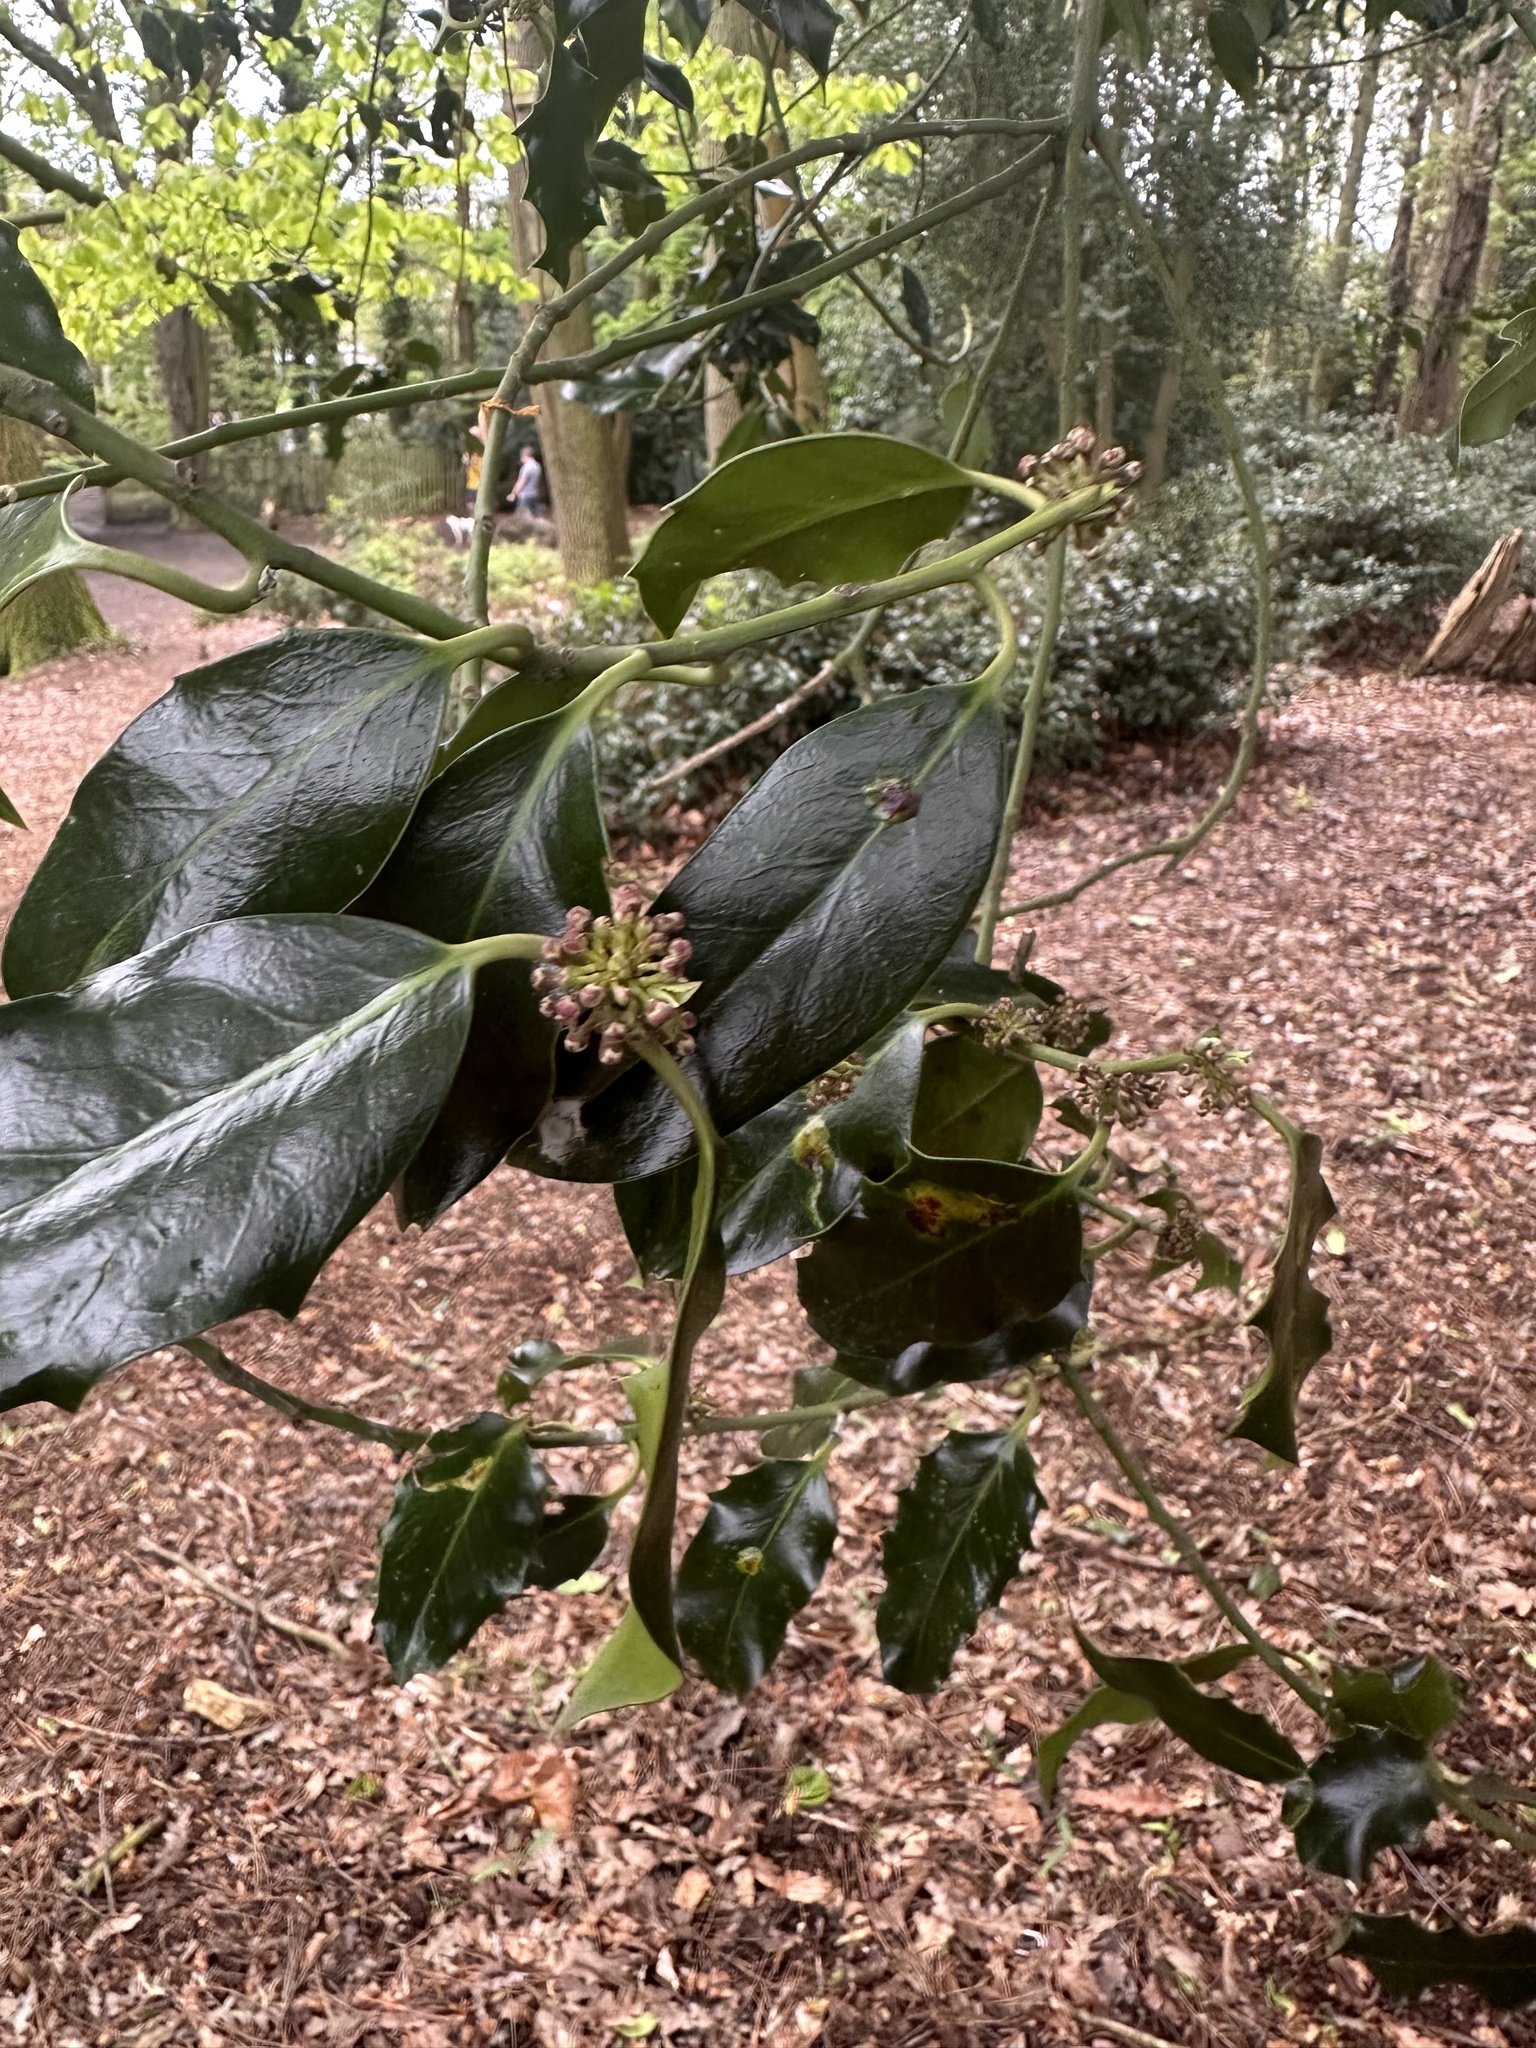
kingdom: Plantae
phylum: Tracheophyta
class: Magnoliopsida
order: Aquifoliales
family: Aquifoliaceae
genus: Ilex
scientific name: Ilex aquifolium
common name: English holly
